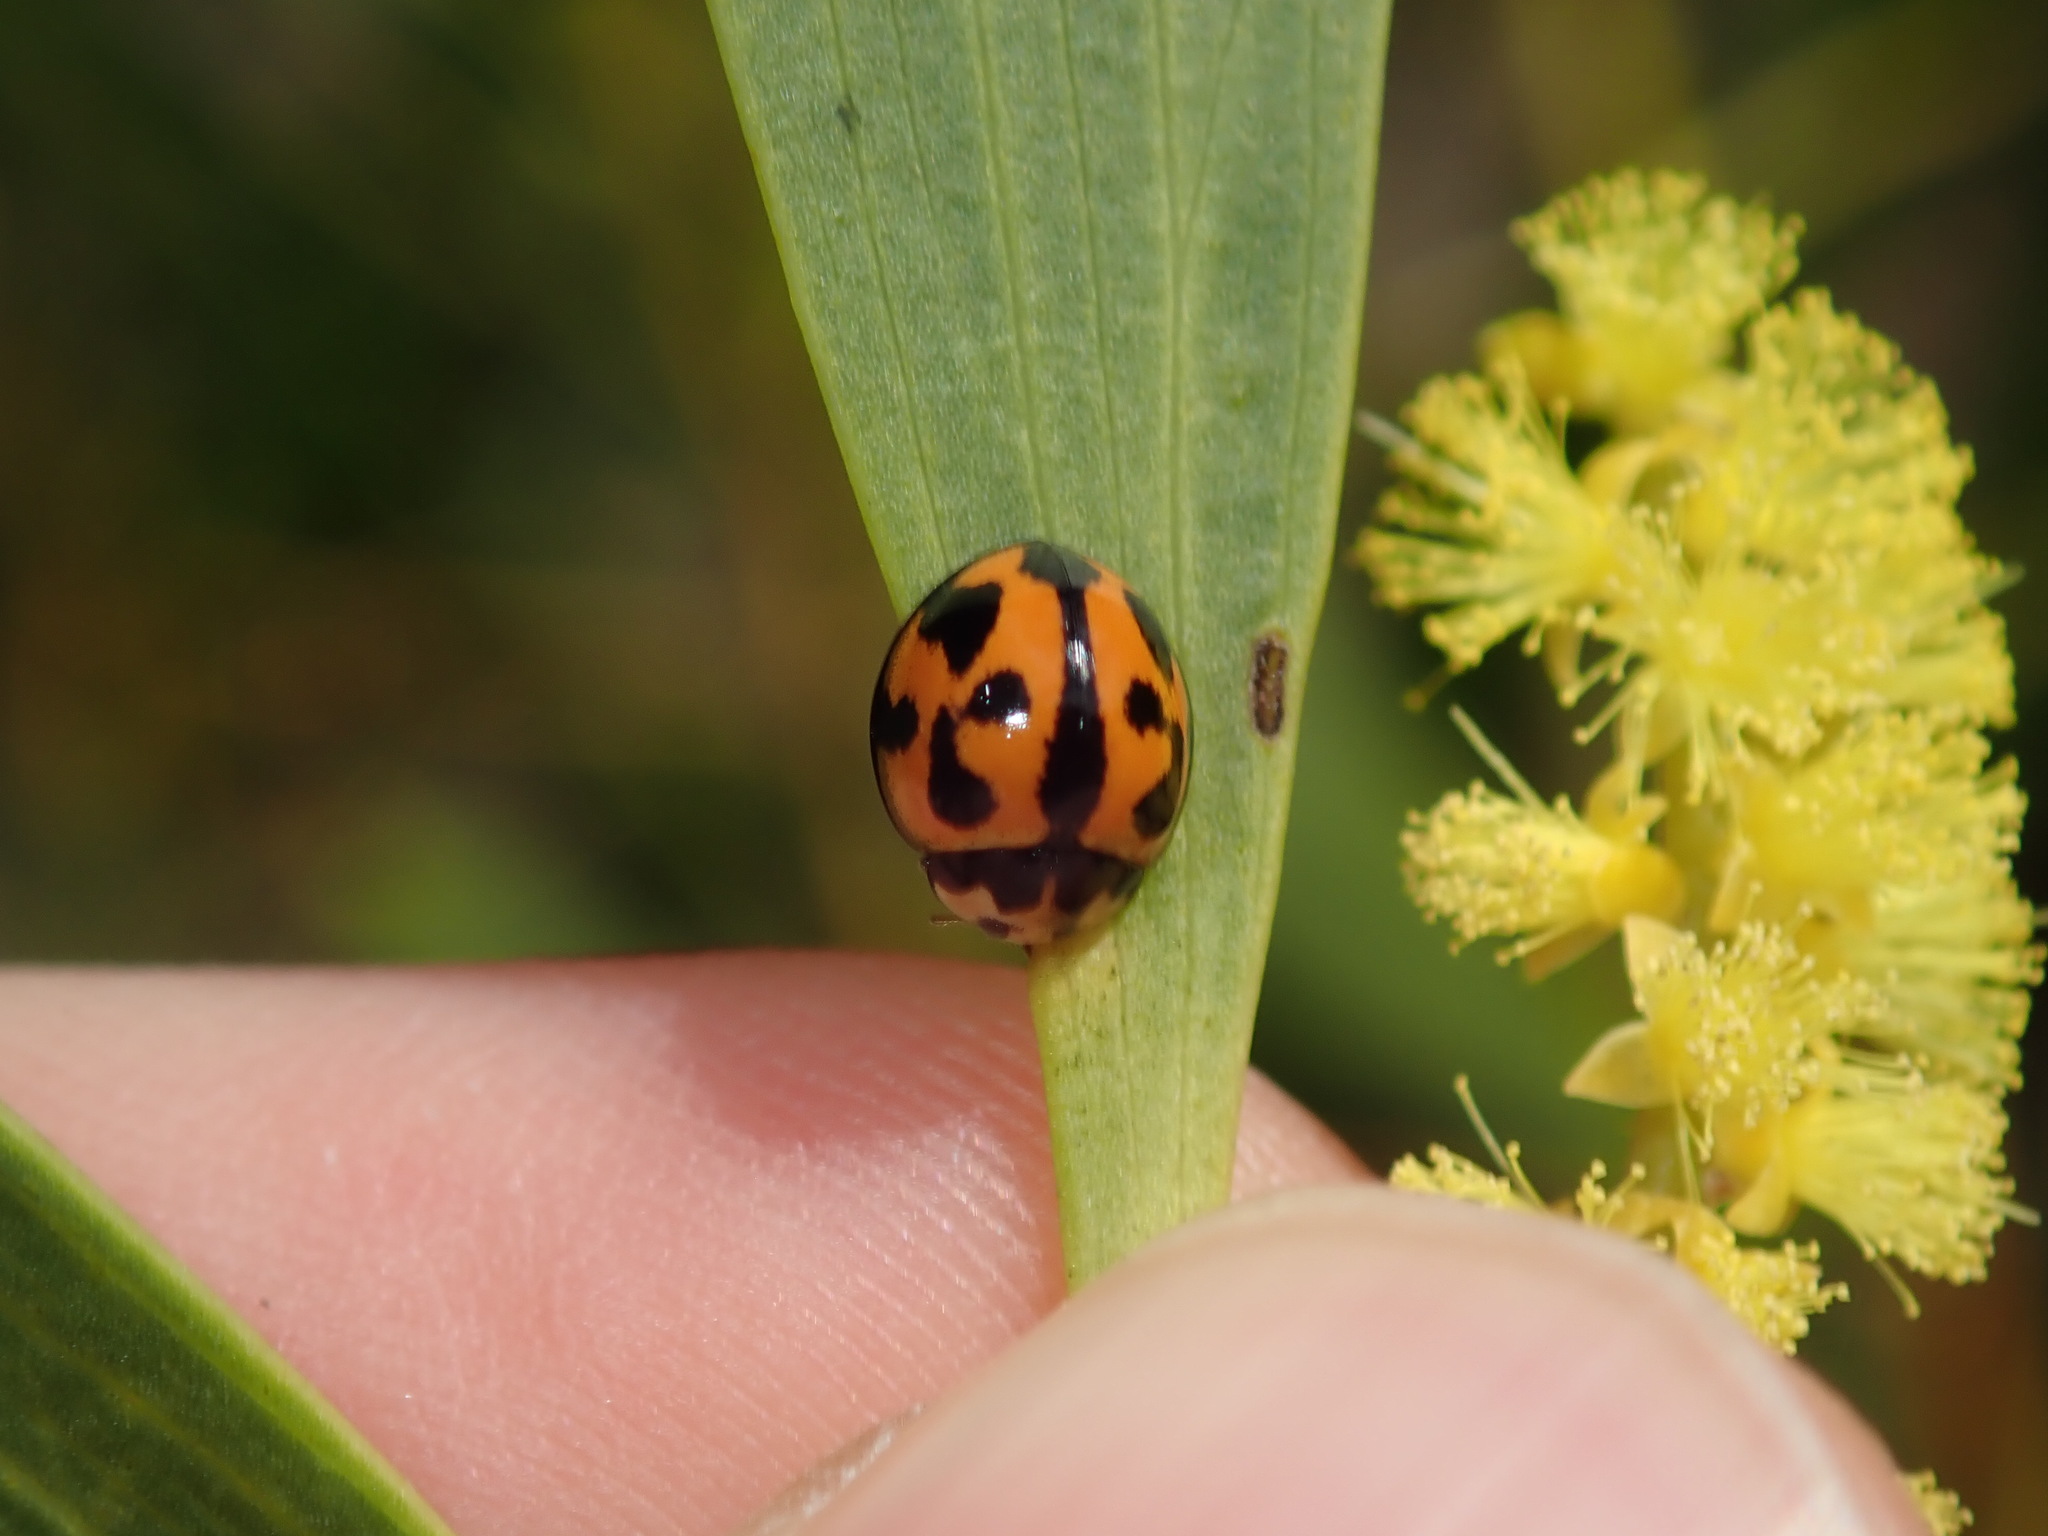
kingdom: Animalia
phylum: Arthropoda
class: Insecta
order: Coleoptera
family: Coccinellidae
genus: Coelophora
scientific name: Coelophora inaequalis
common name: Common australian lady beetle
